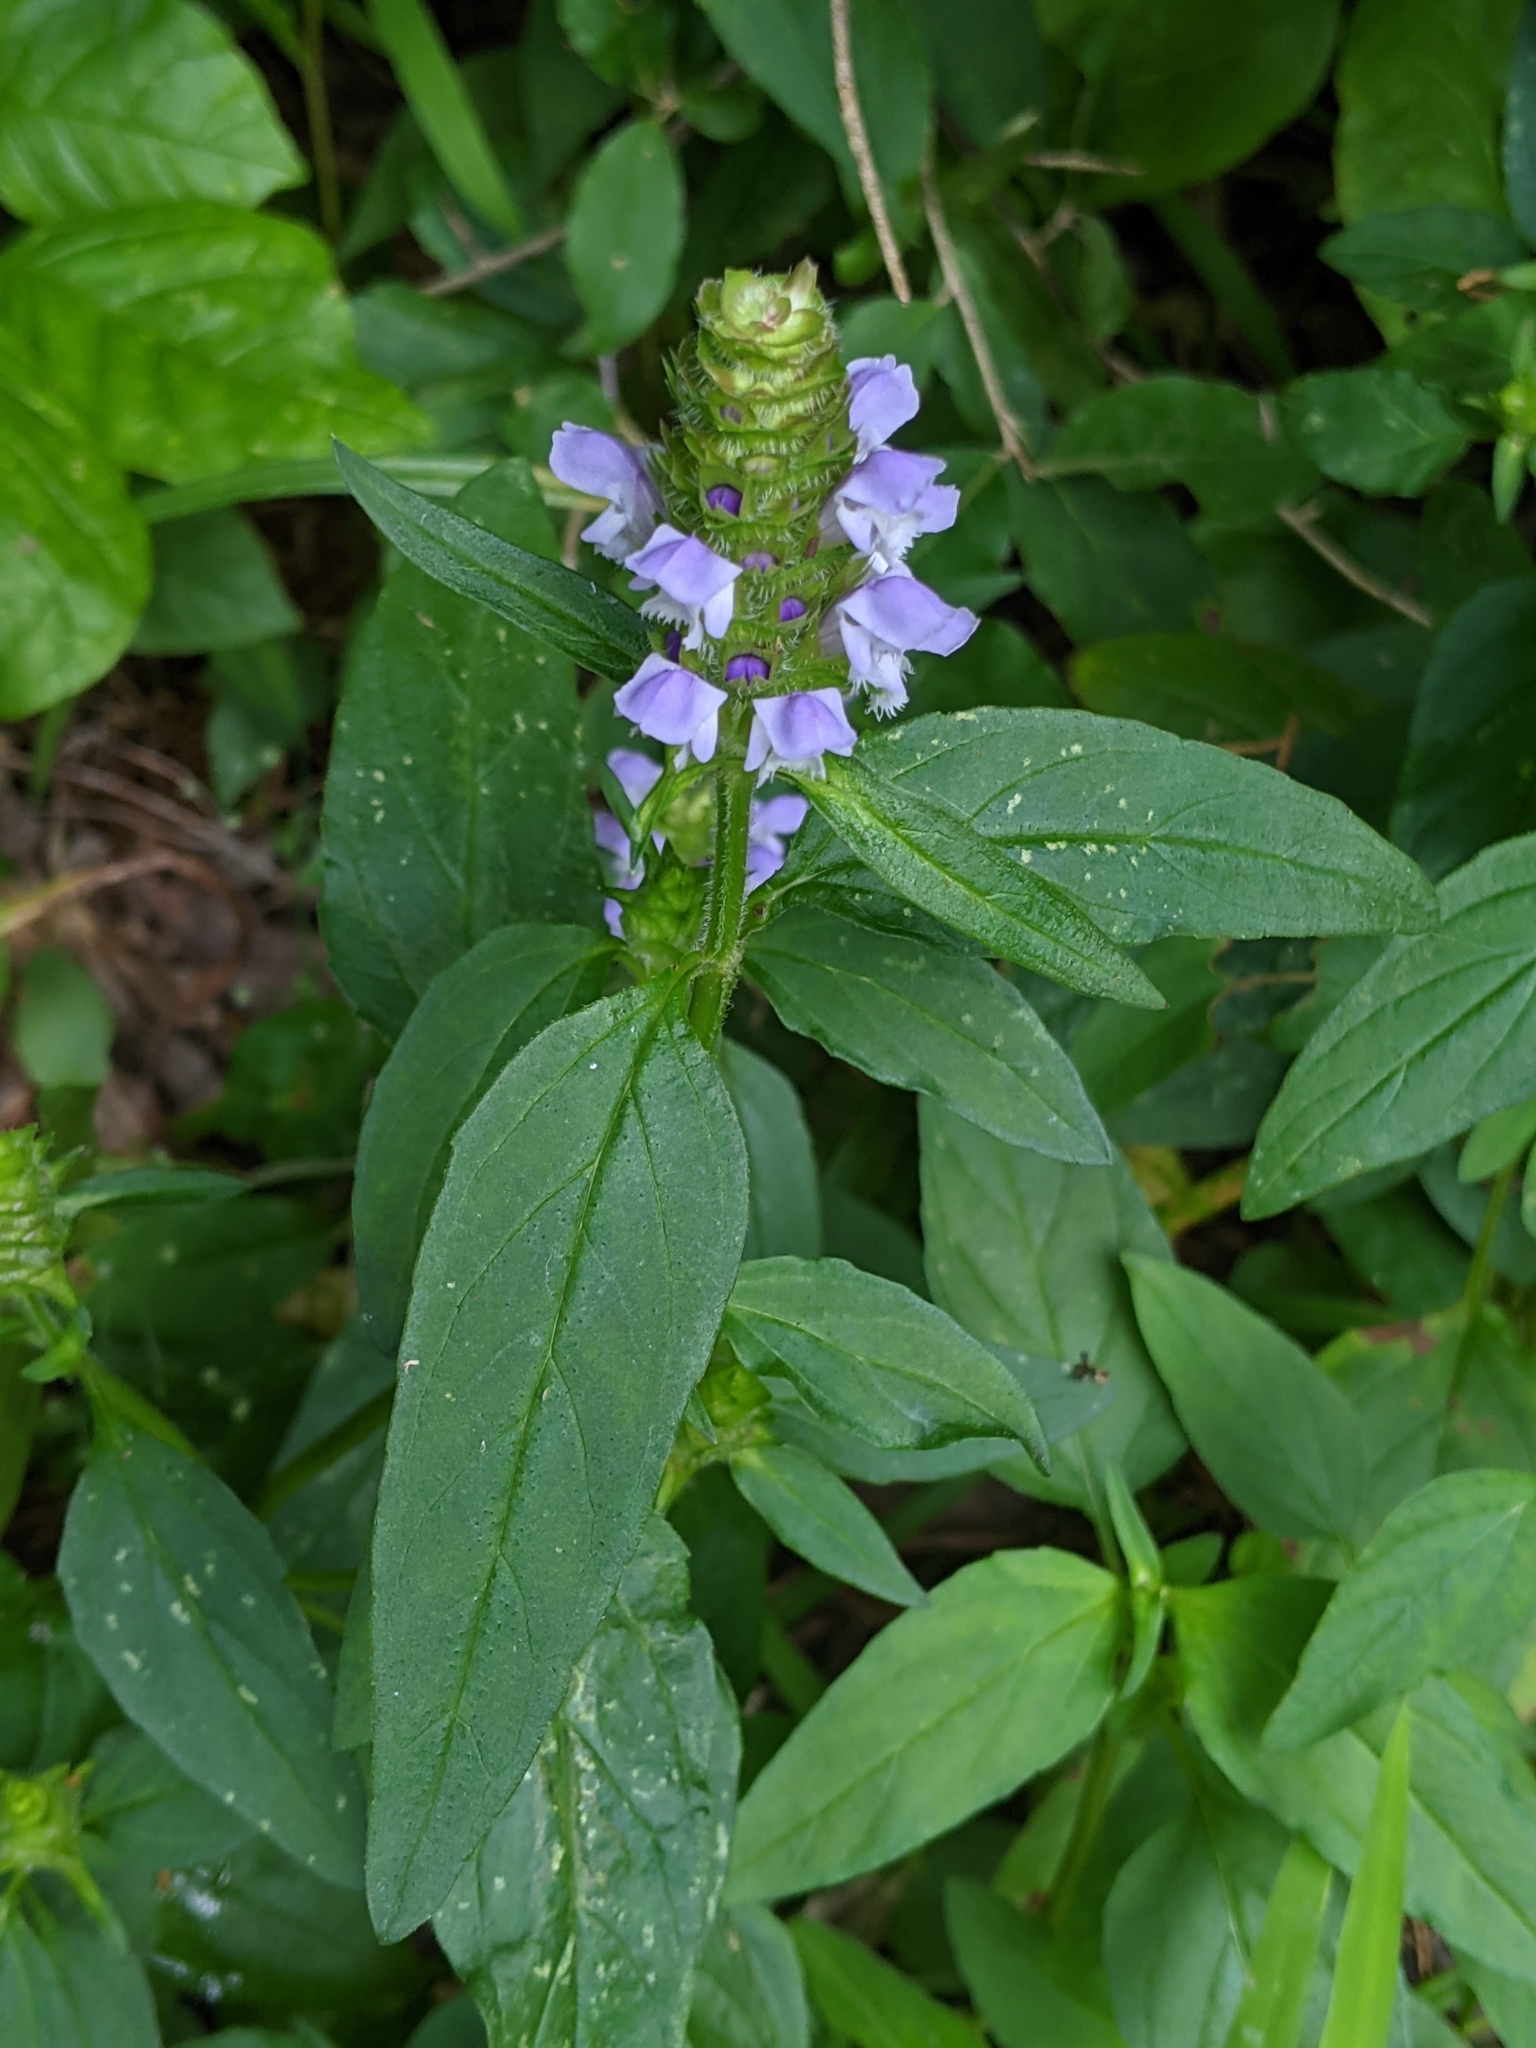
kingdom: Plantae
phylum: Tracheophyta
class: Magnoliopsida
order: Lamiales
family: Lamiaceae
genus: Prunella
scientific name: Prunella vulgaris
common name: Heal-all
